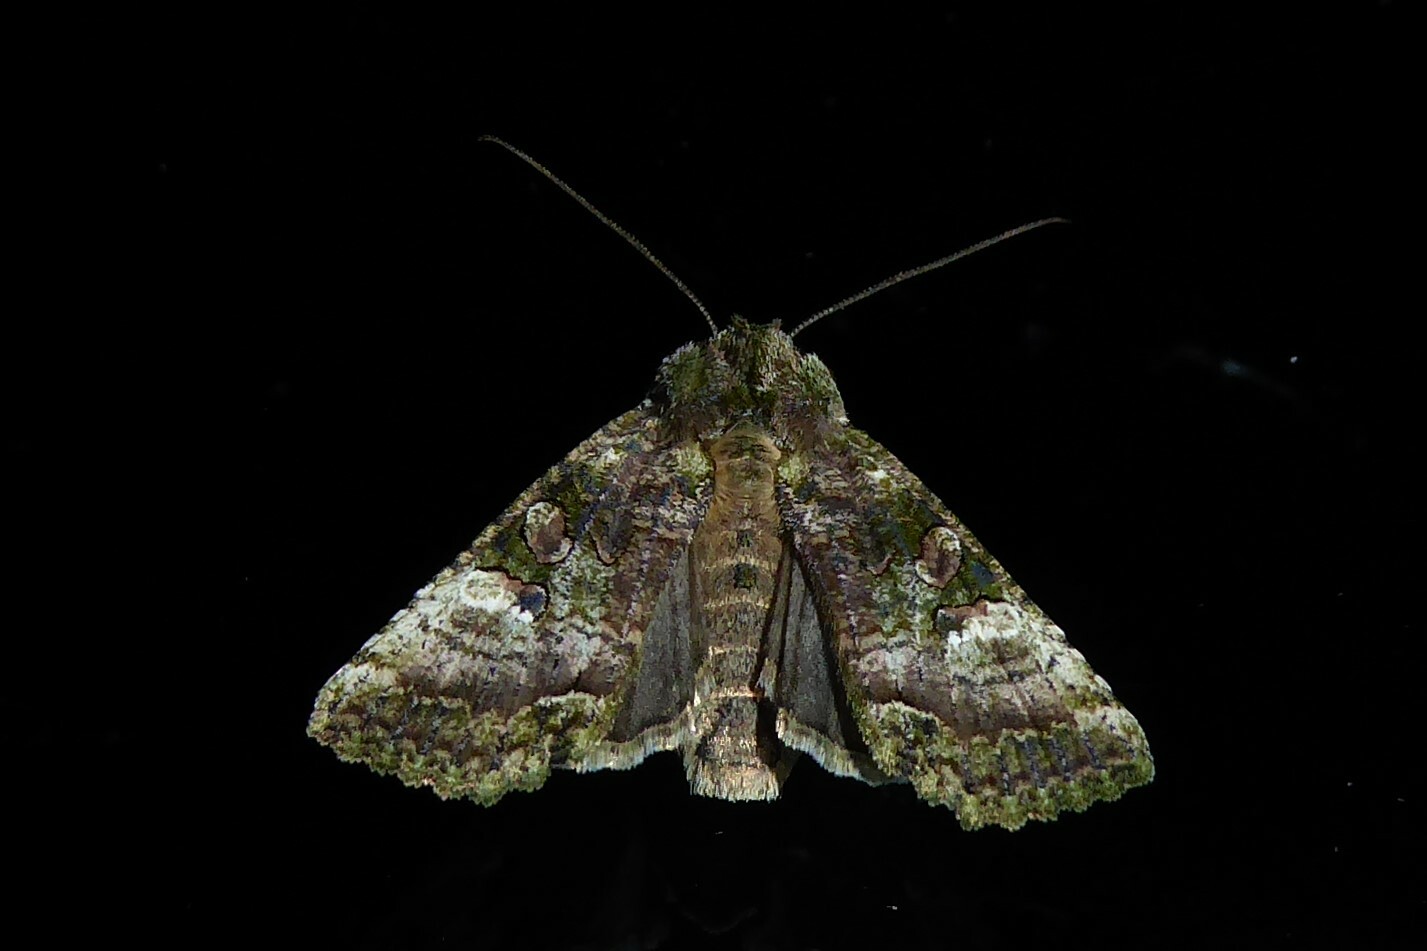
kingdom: Animalia
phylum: Arthropoda
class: Insecta
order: Lepidoptera
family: Noctuidae
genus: Meterana
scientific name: Meterana levis
